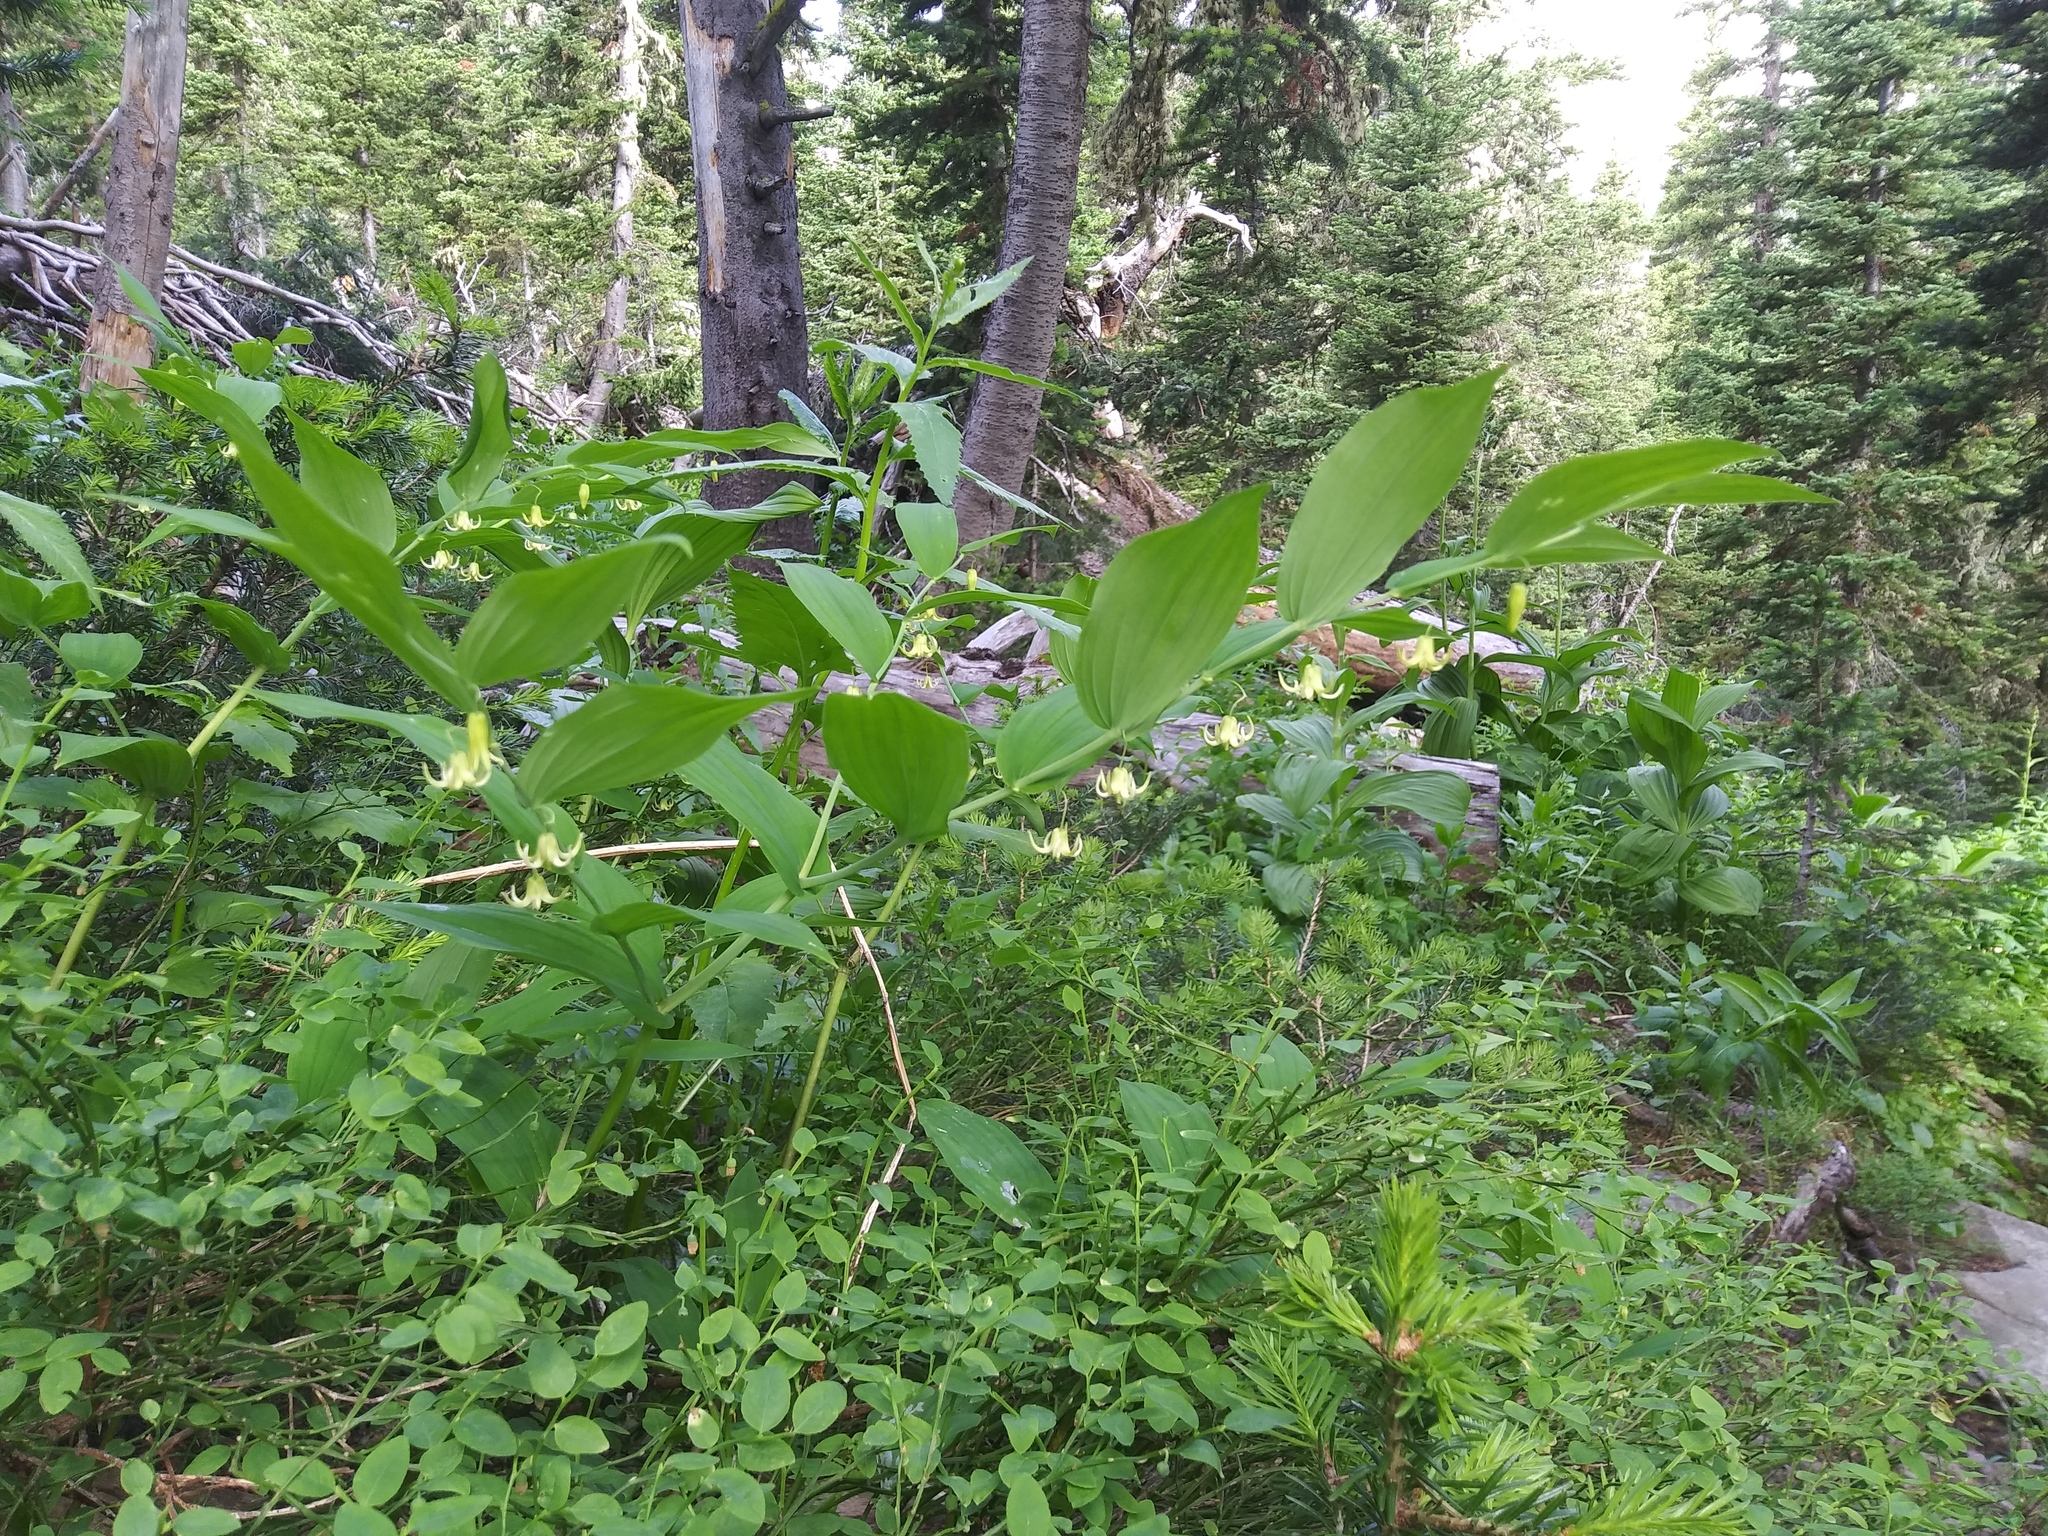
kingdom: Plantae
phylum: Tracheophyta
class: Liliopsida
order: Liliales
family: Liliaceae
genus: Streptopus
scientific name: Streptopus amplexifolius
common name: Clasp twisted stalk
